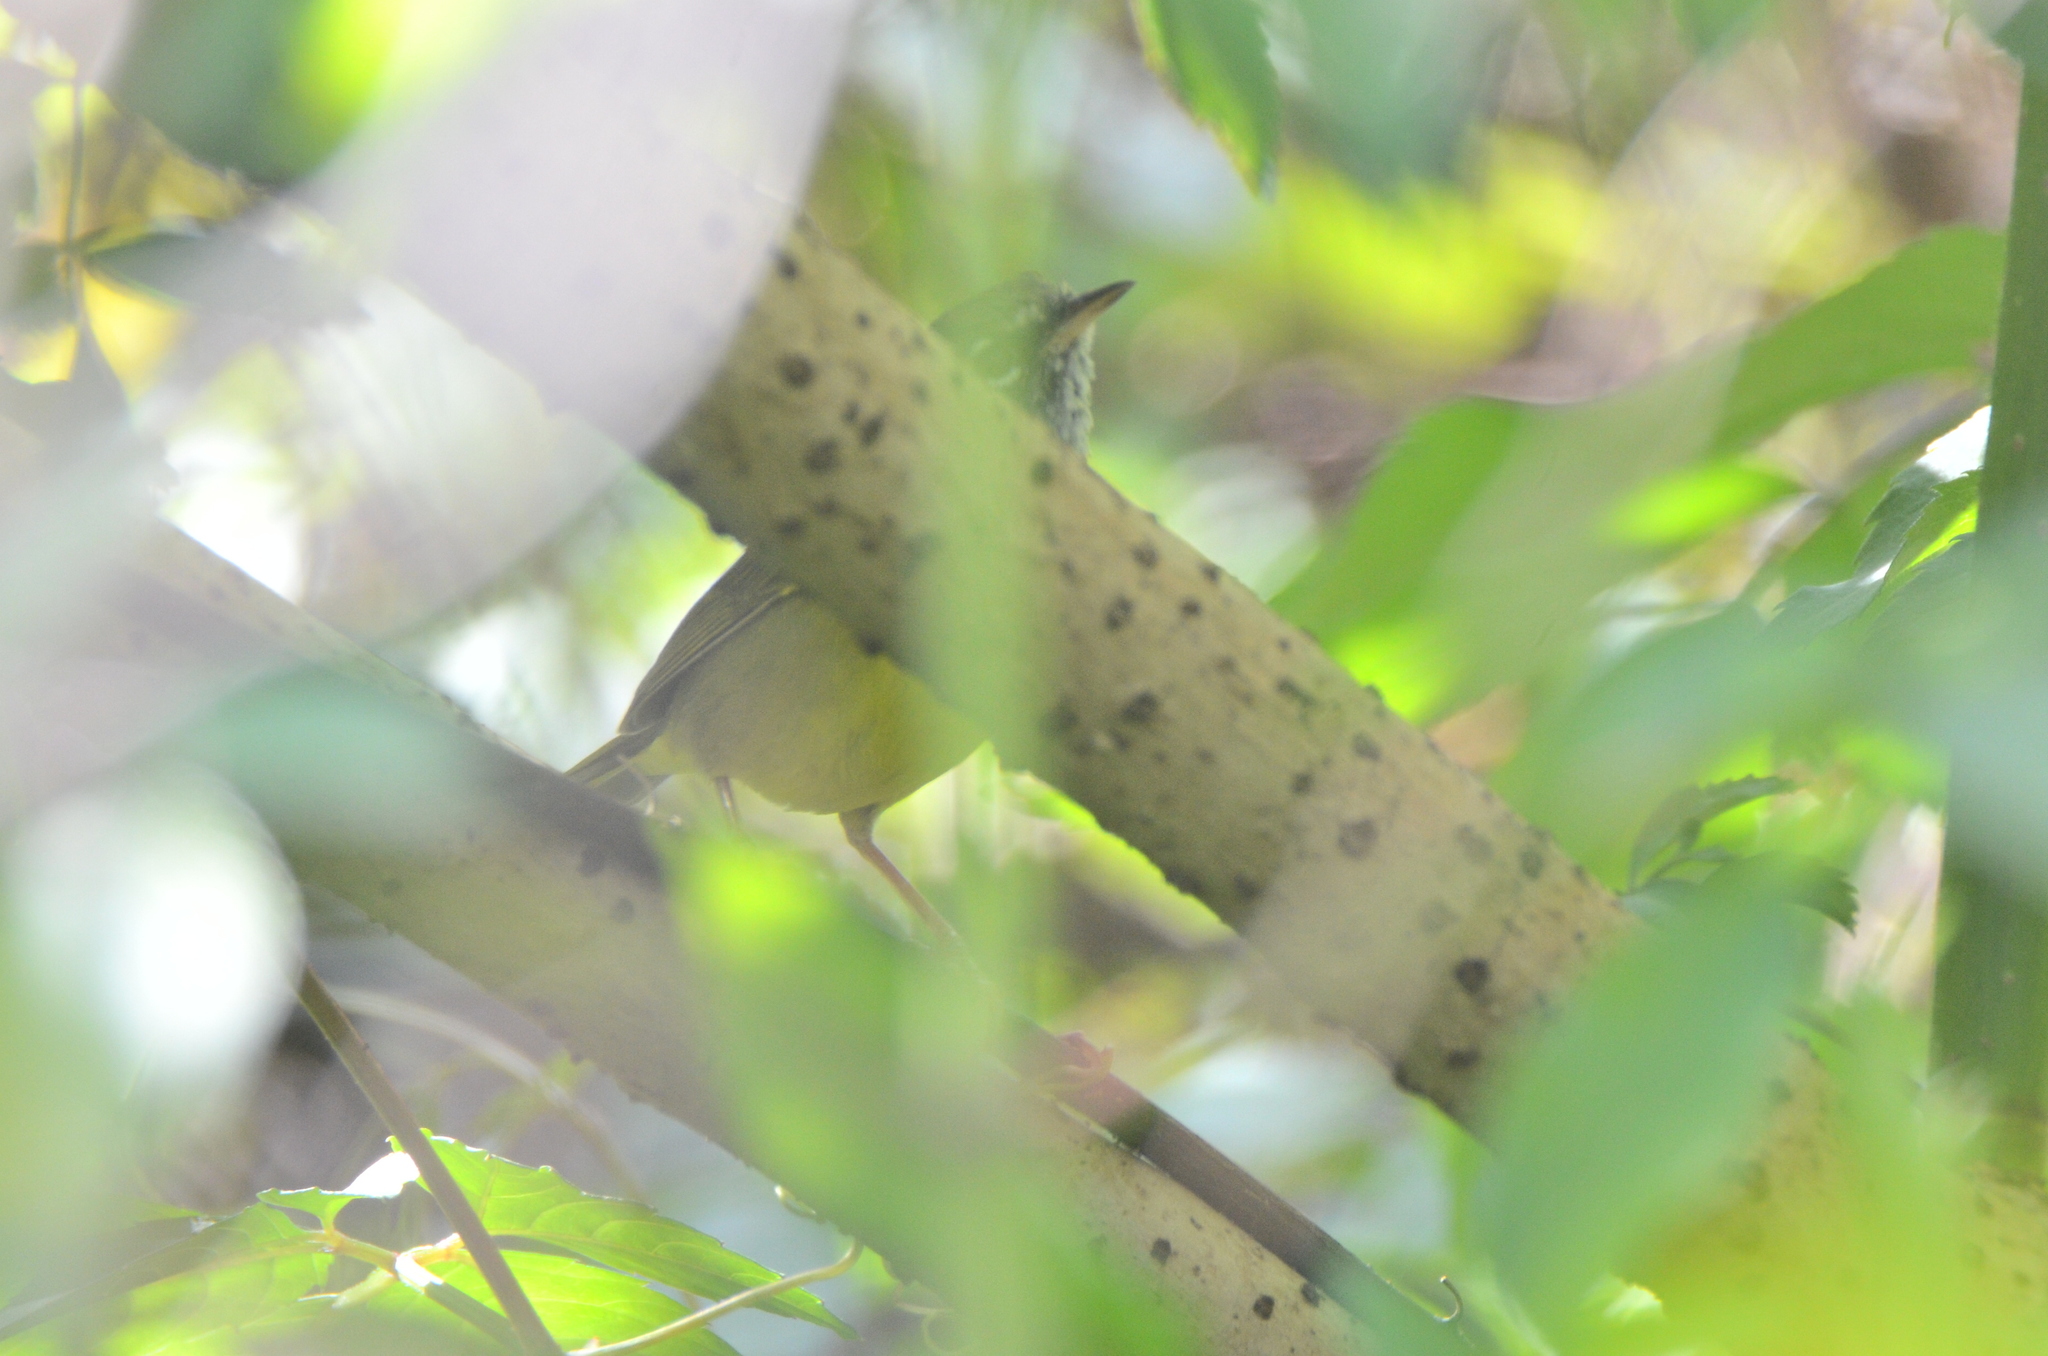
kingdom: Animalia
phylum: Chordata
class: Aves
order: Passeriformes
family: Parulidae
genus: Geothlypis
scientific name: Geothlypis tolmiei
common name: Macgillivray's warbler
